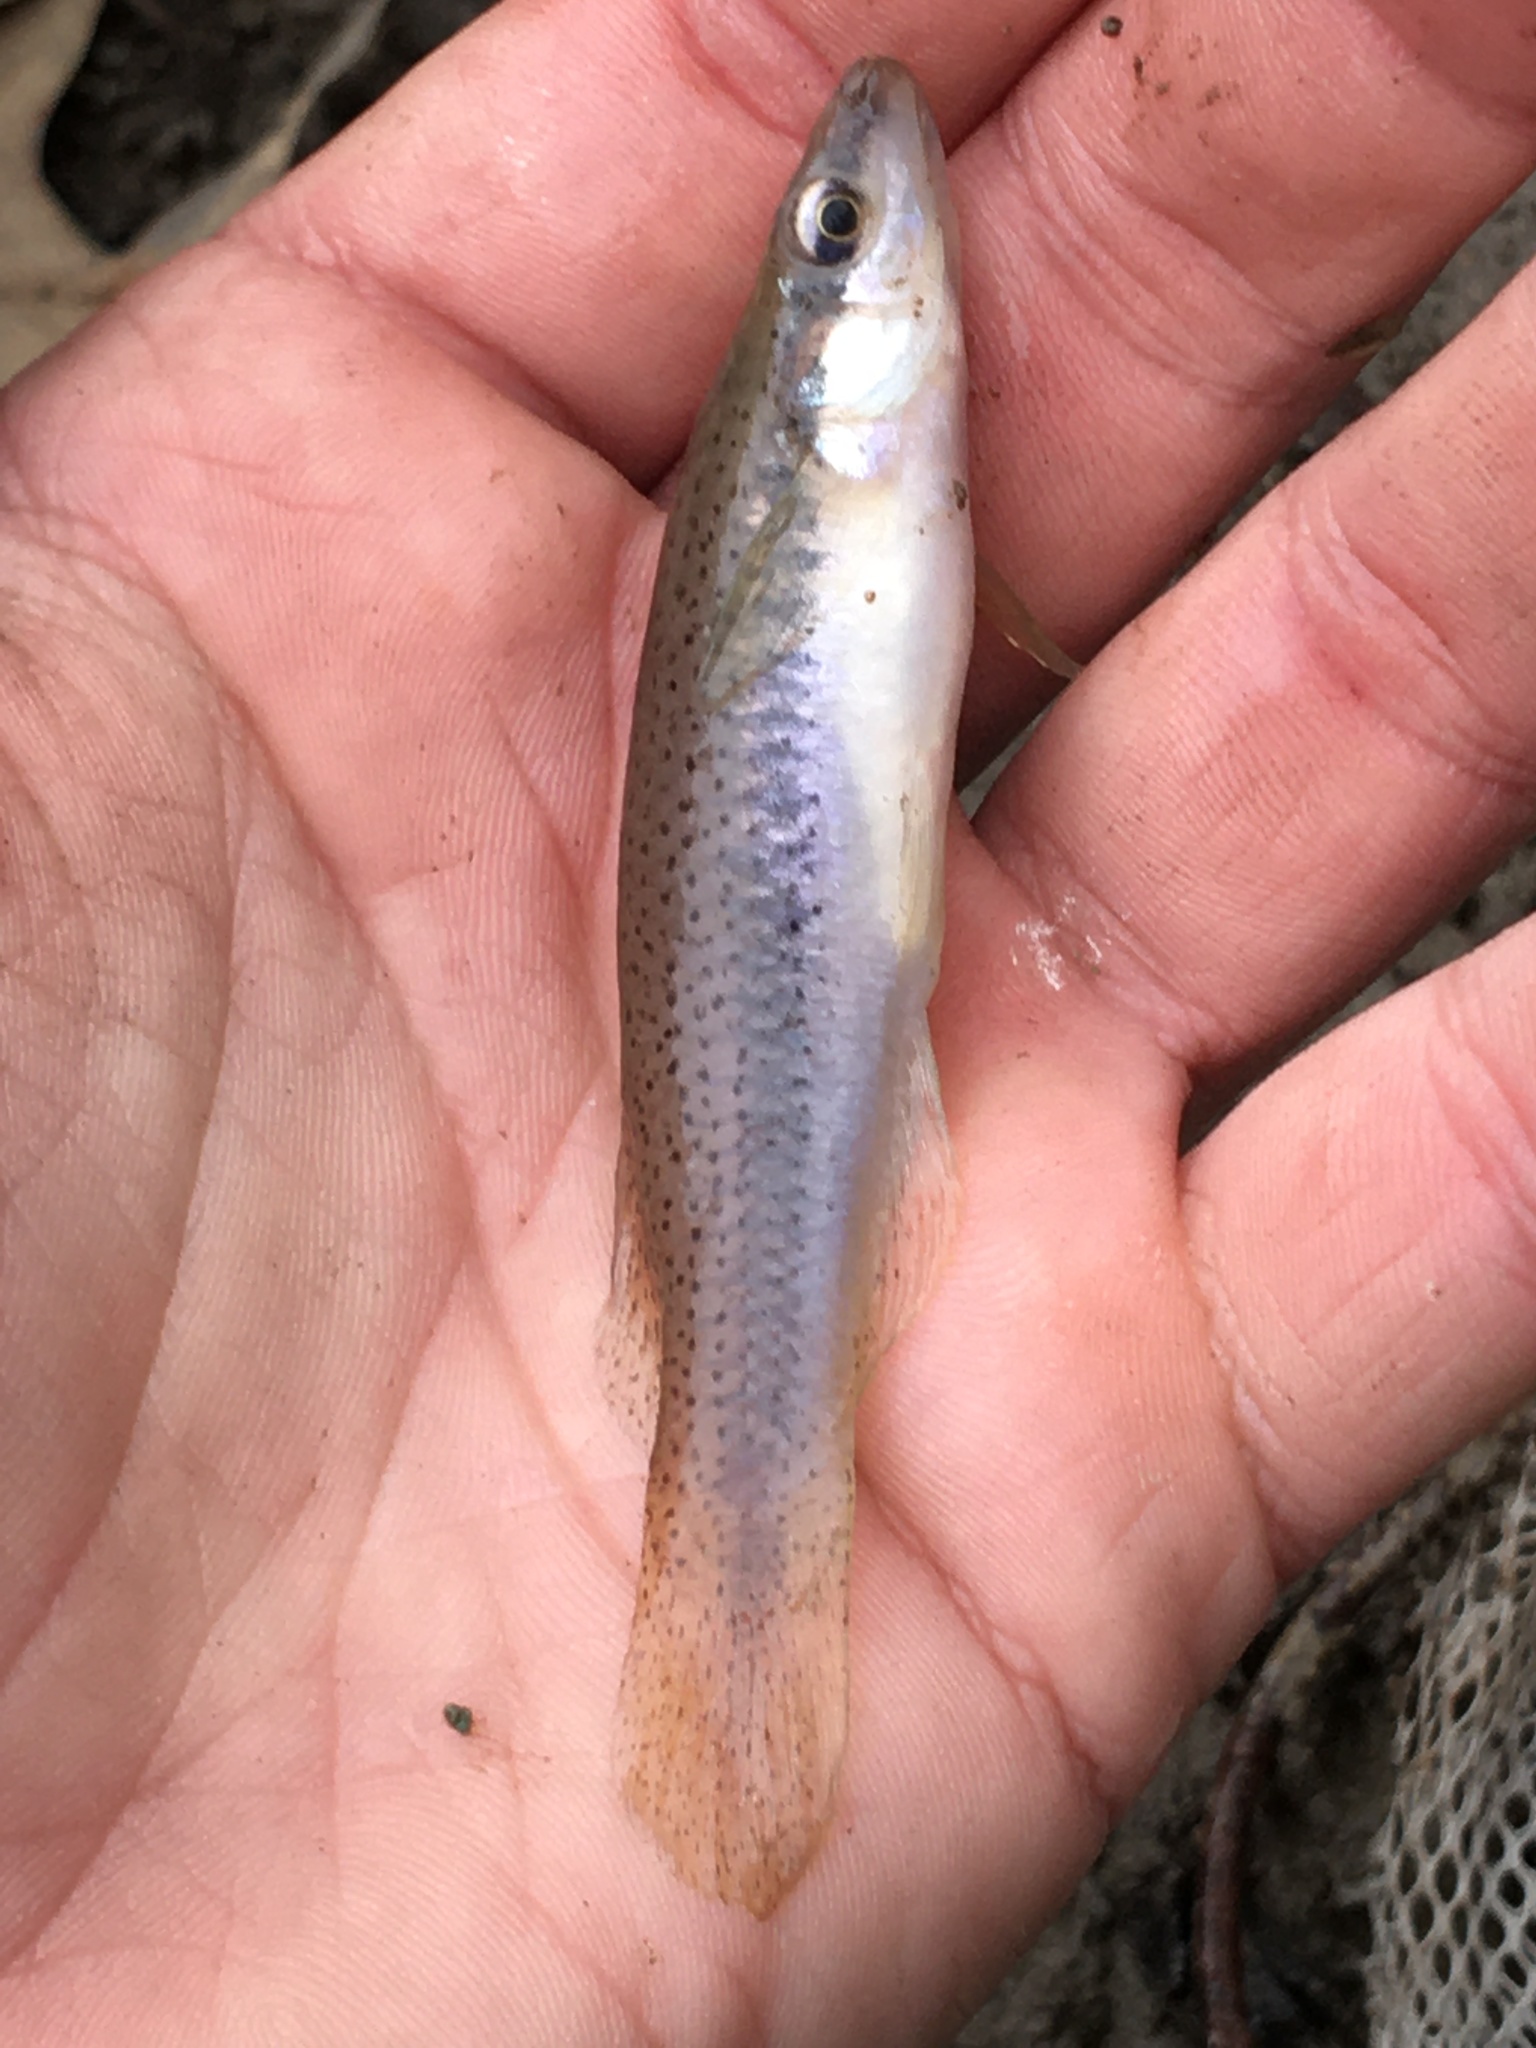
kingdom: Animalia
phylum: Chordata
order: Cyprinodontiformes
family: Fundulidae
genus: Fundulus
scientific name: Fundulus olivaceus
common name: Blackspotted topminnow
